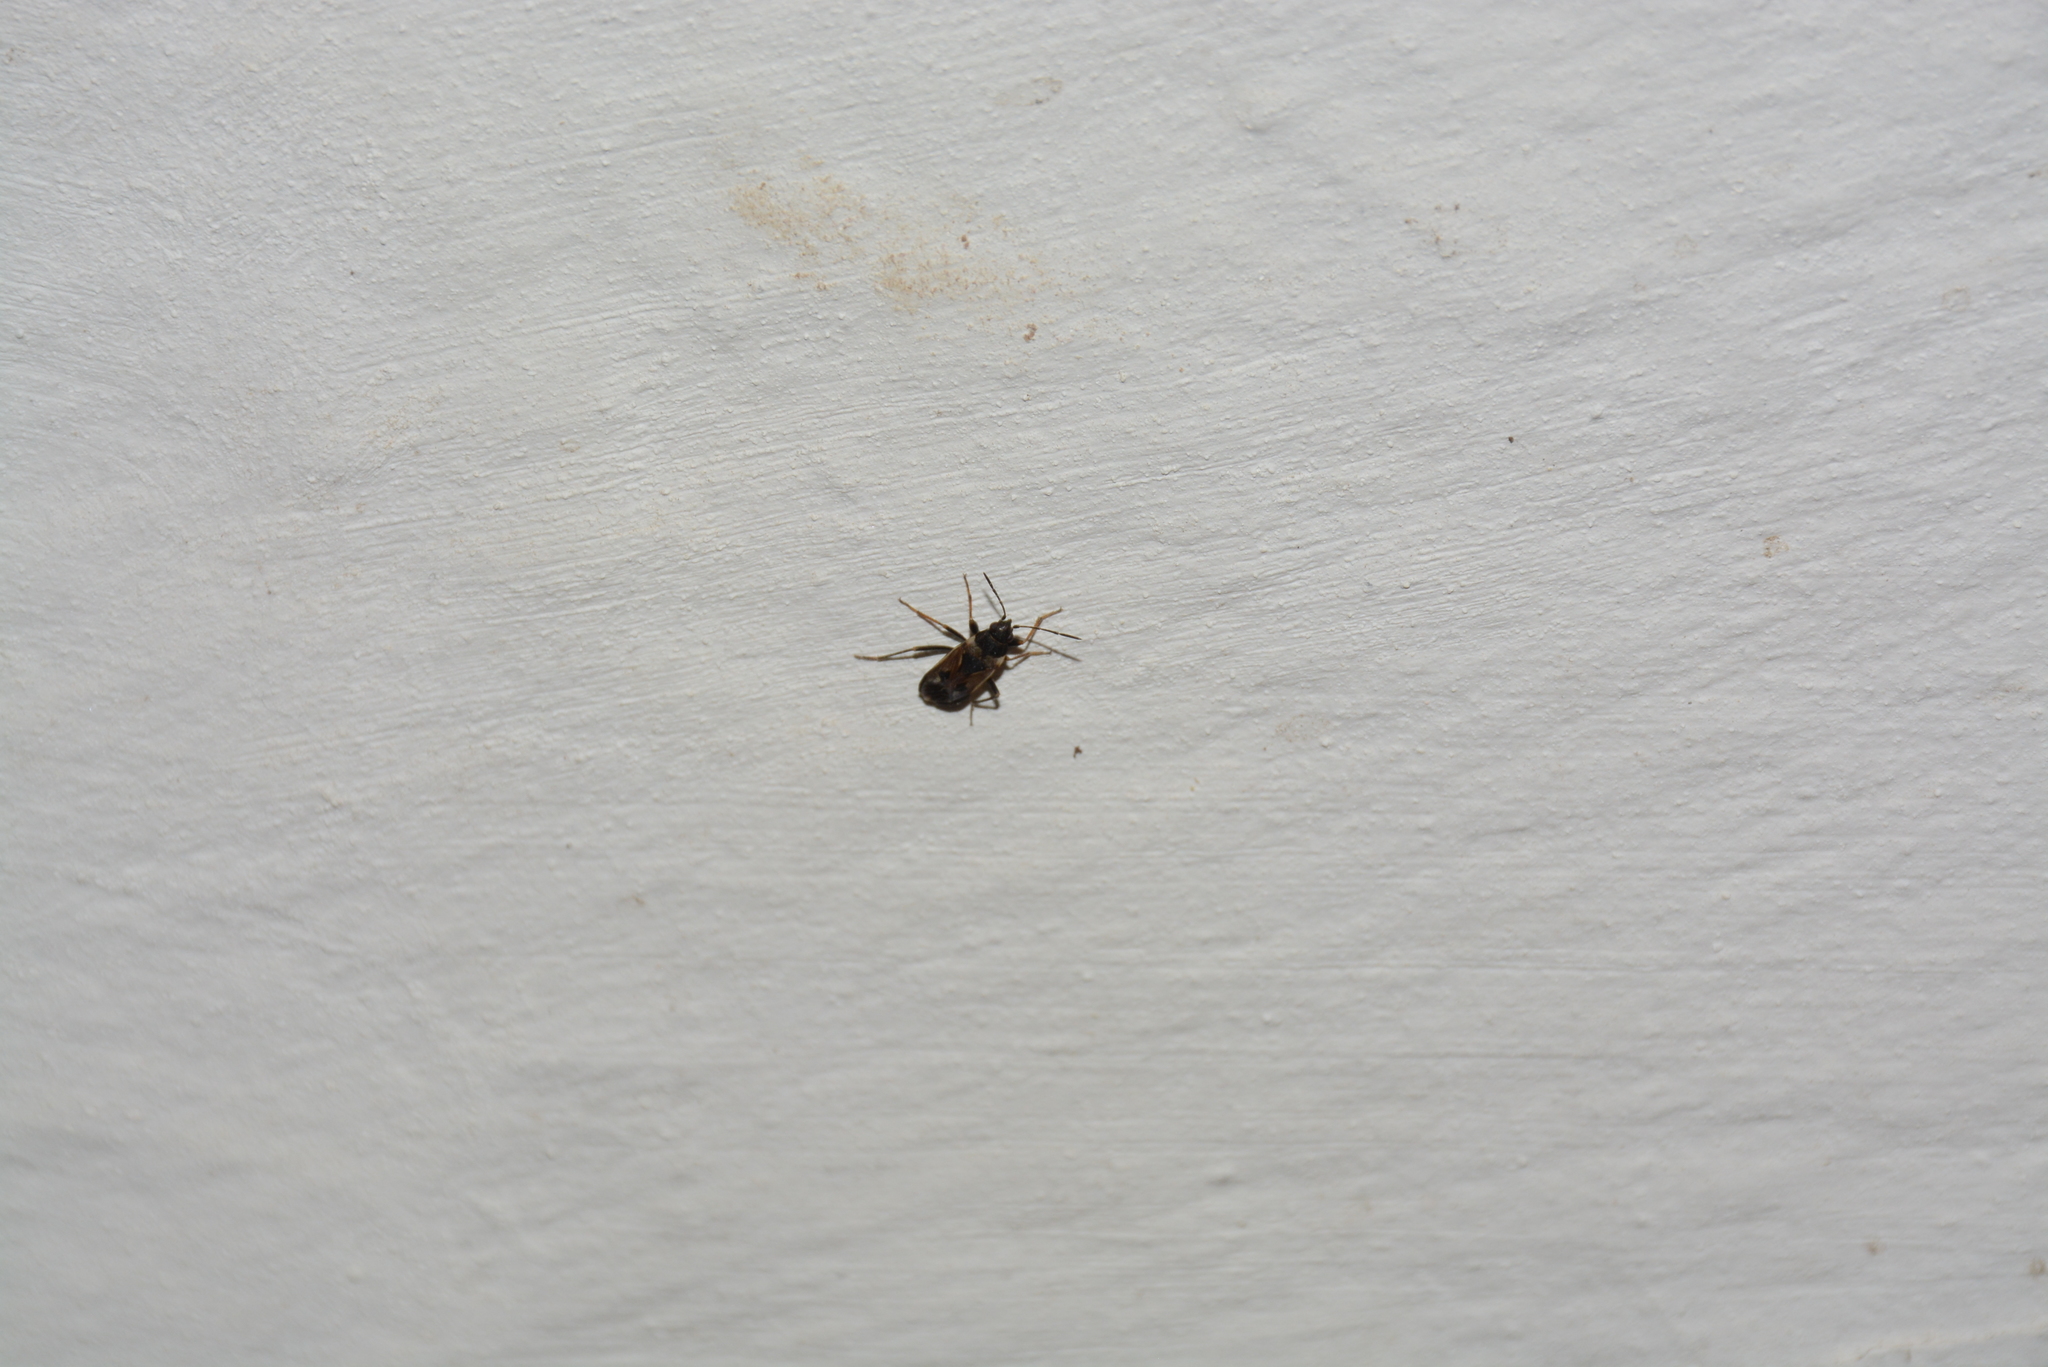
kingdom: Animalia
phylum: Arthropoda
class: Insecta
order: Hemiptera
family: Rhyparochromidae
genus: Rhyparochromus
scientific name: Rhyparochromus vulgaris
